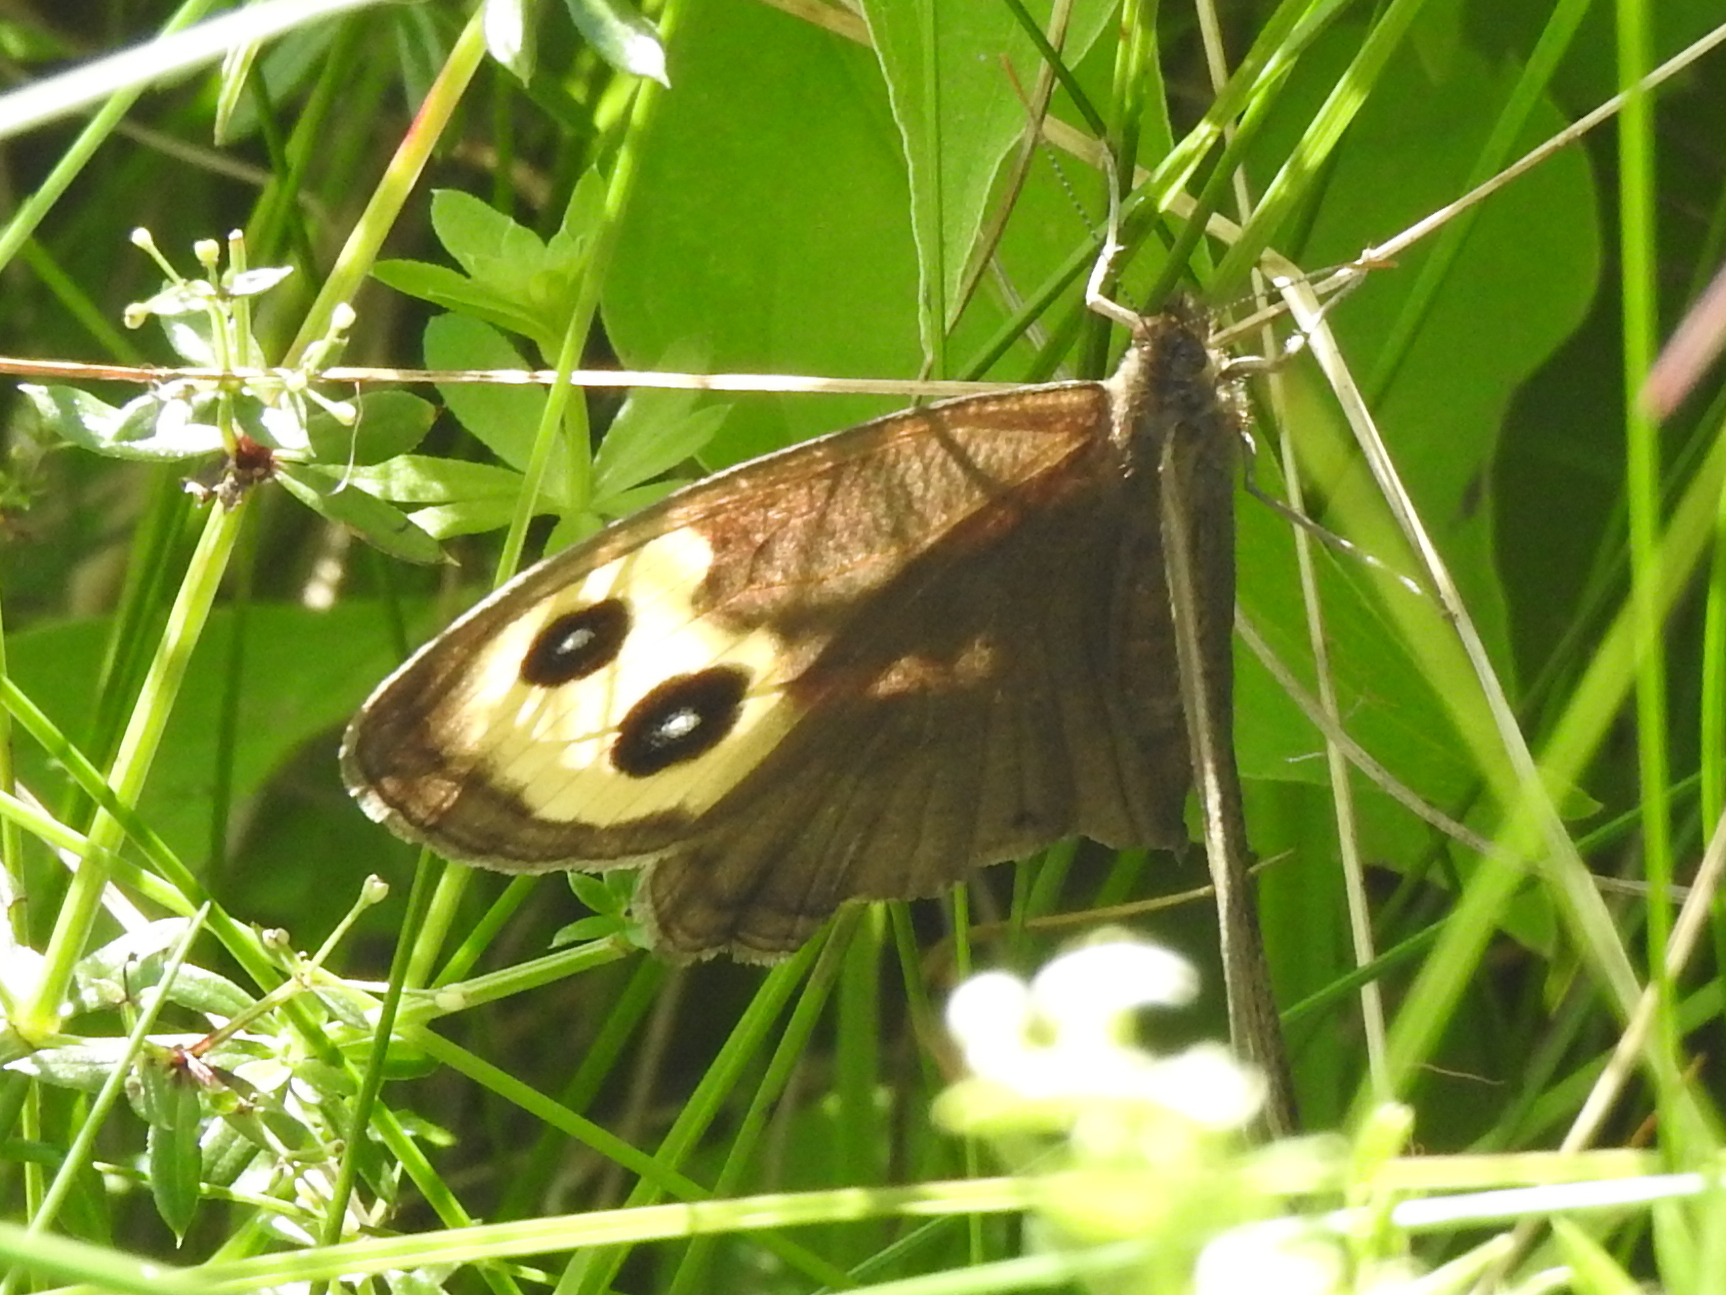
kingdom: Animalia
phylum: Arthropoda
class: Insecta
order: Lepidoptera
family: Nymphalidae
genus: Cercyonis
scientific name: Cercyonis pegala
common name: Common wood-nymph
